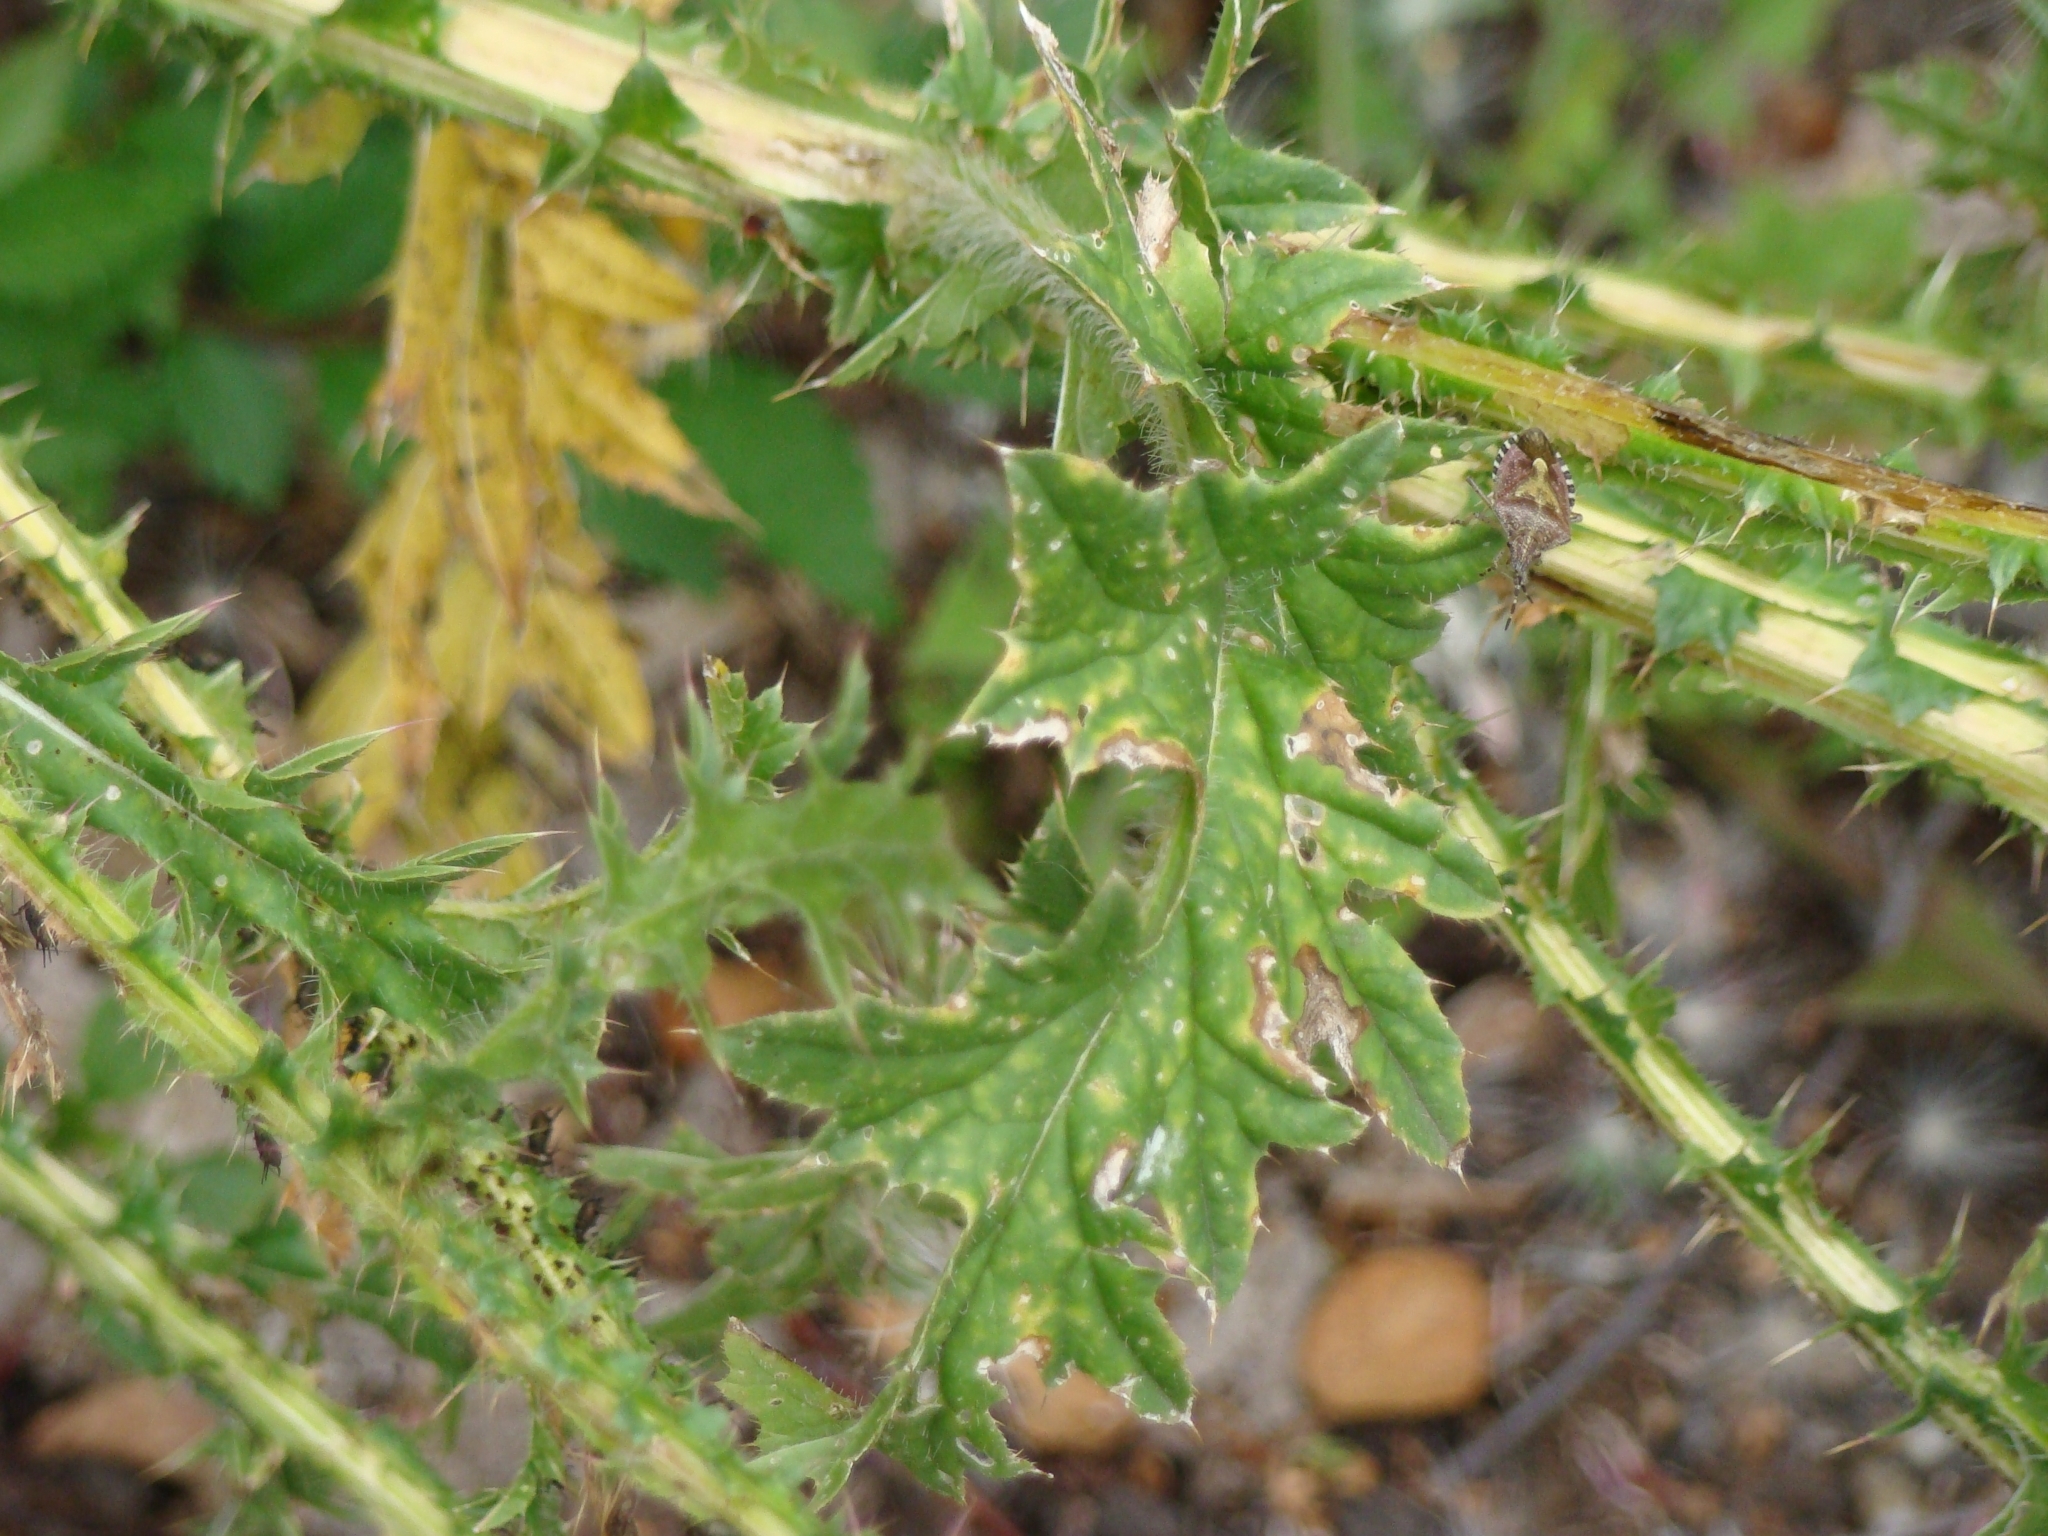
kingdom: Animalia
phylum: Arthropoda
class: Insecta
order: Hemiptera
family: Pentatomidae
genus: Dolycoris
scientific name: Dolycoris baccarum
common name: Sloe bug
